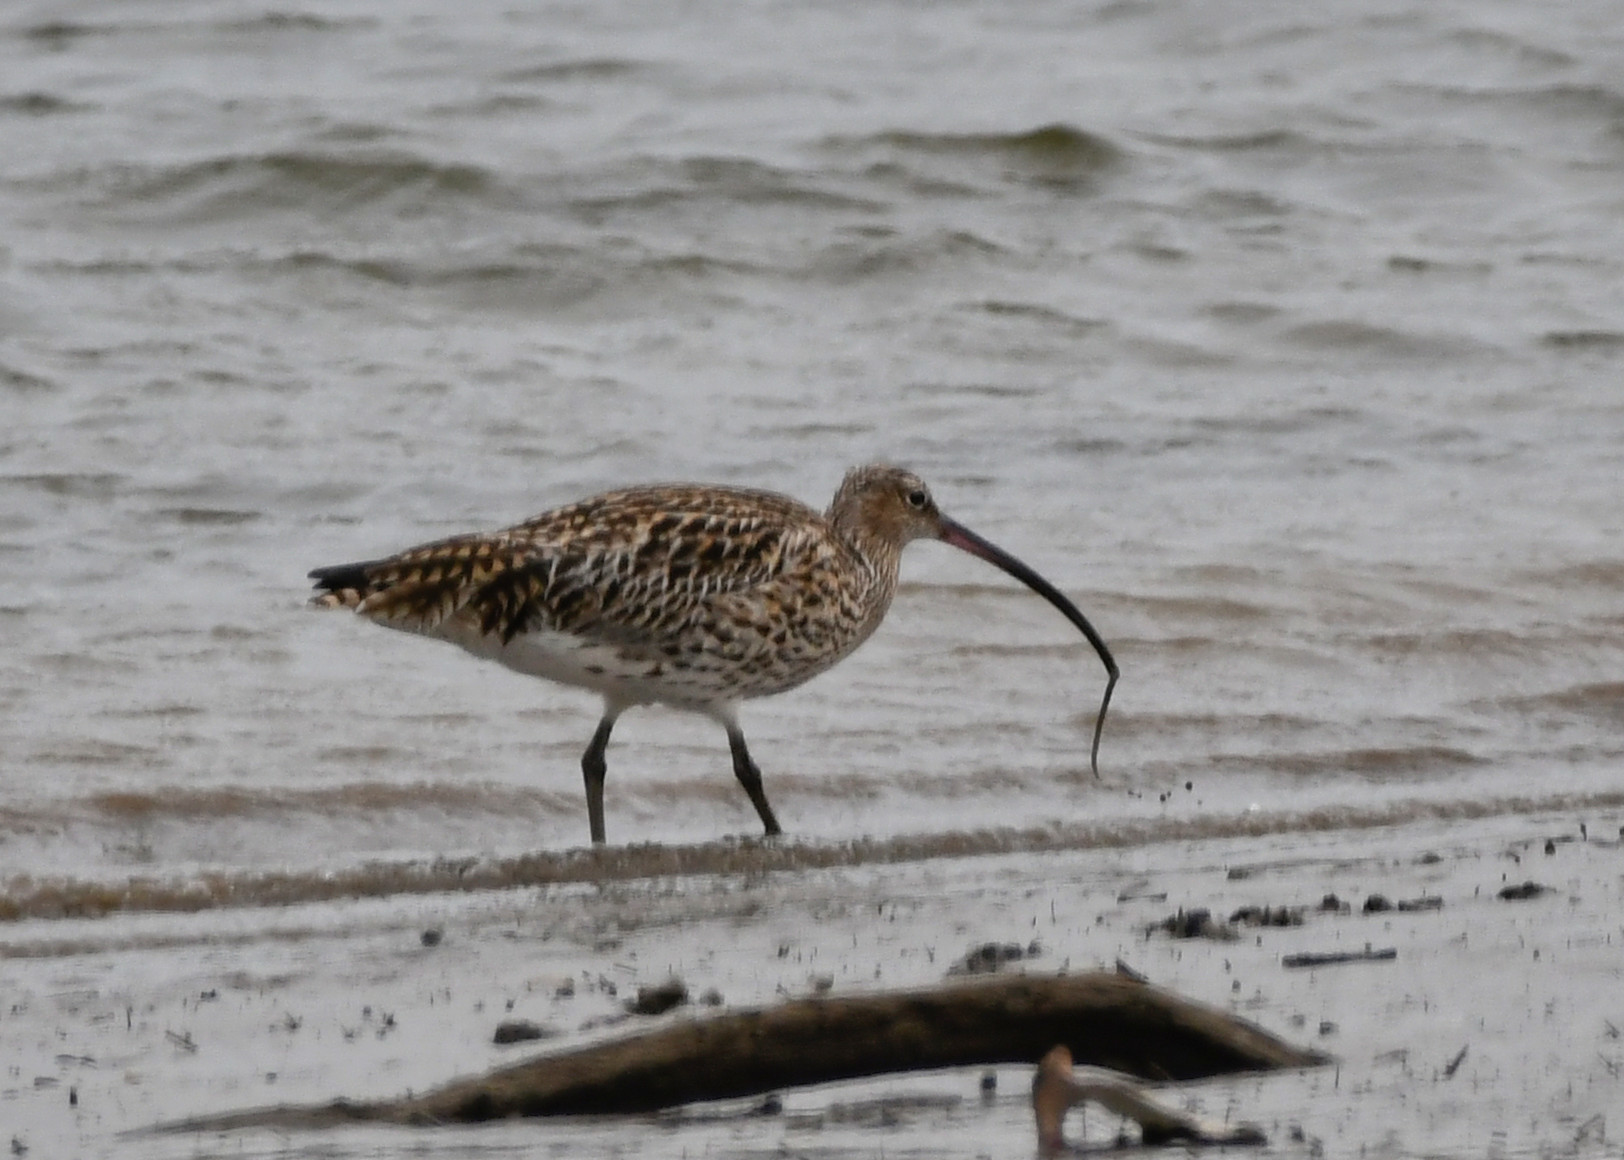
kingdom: Animalia
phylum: Chordata
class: Aves
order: Charadriiformes
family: Scolopacidae
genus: Numenius
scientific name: Numenius arquata
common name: Eurasian curlew
